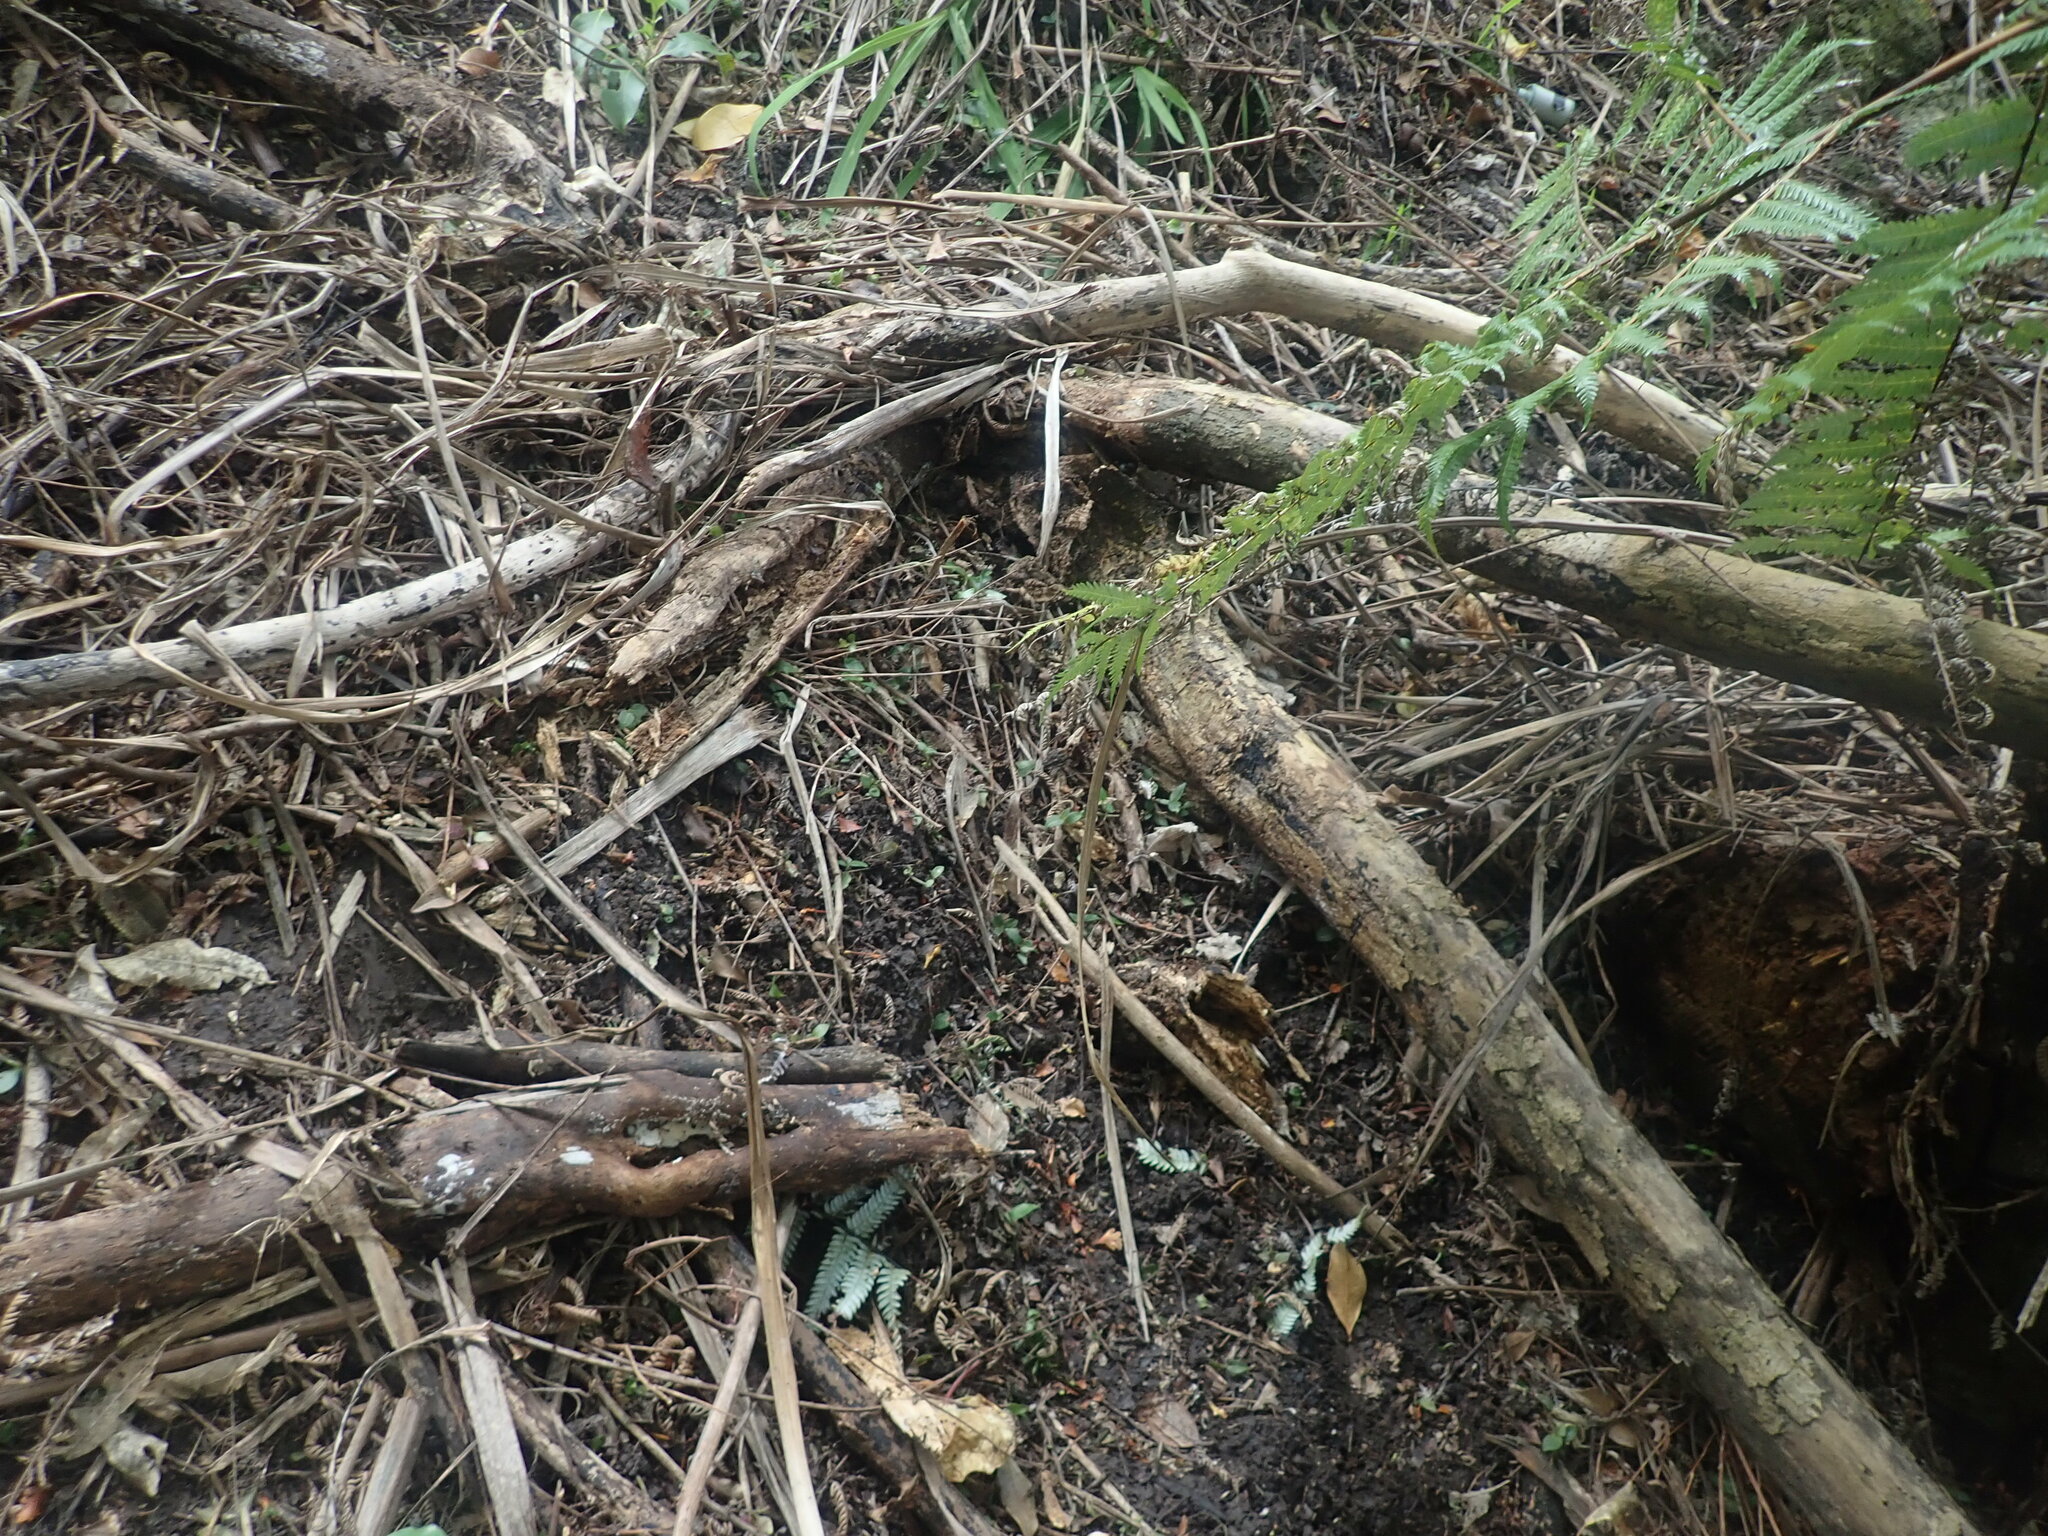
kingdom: Plantae
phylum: Tracheophyta
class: Magnoliopsida
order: Dipsacales
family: Caprifoliaceae
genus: Lonicera
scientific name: Lonicera japonica
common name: Japanese honeysuckle
